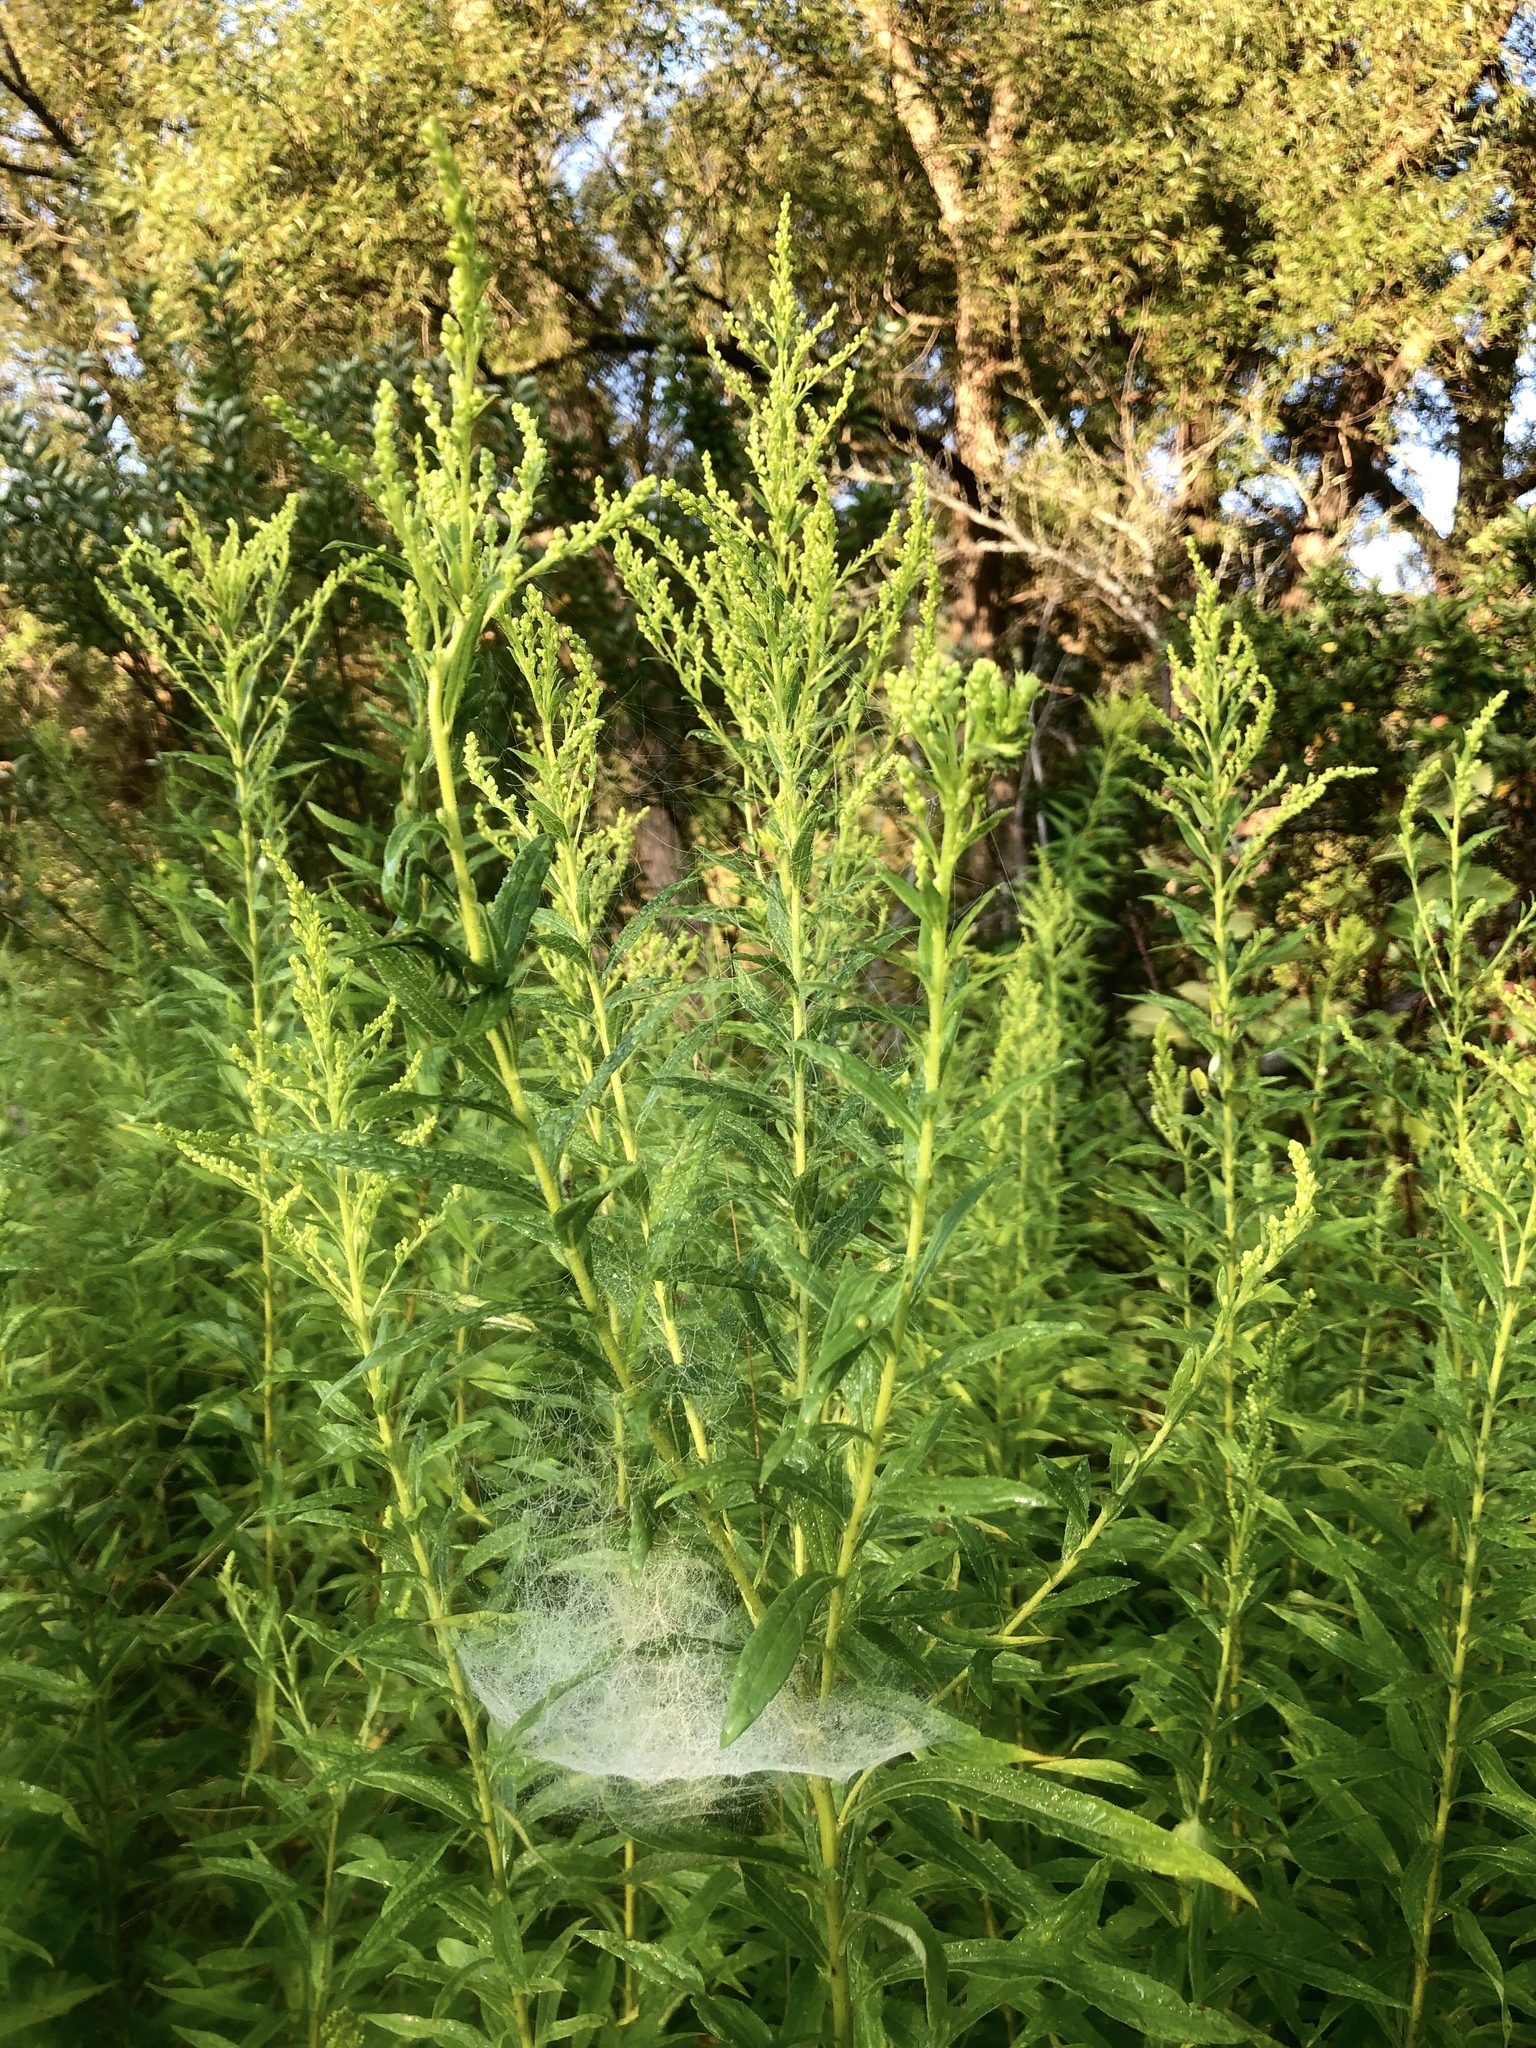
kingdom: Animalia
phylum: Arthropoda
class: Arachnida
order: Araneae
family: Linyphiidae
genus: Frontinella
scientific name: Frontinella pyramitela
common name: Bowl-and-doily spider
